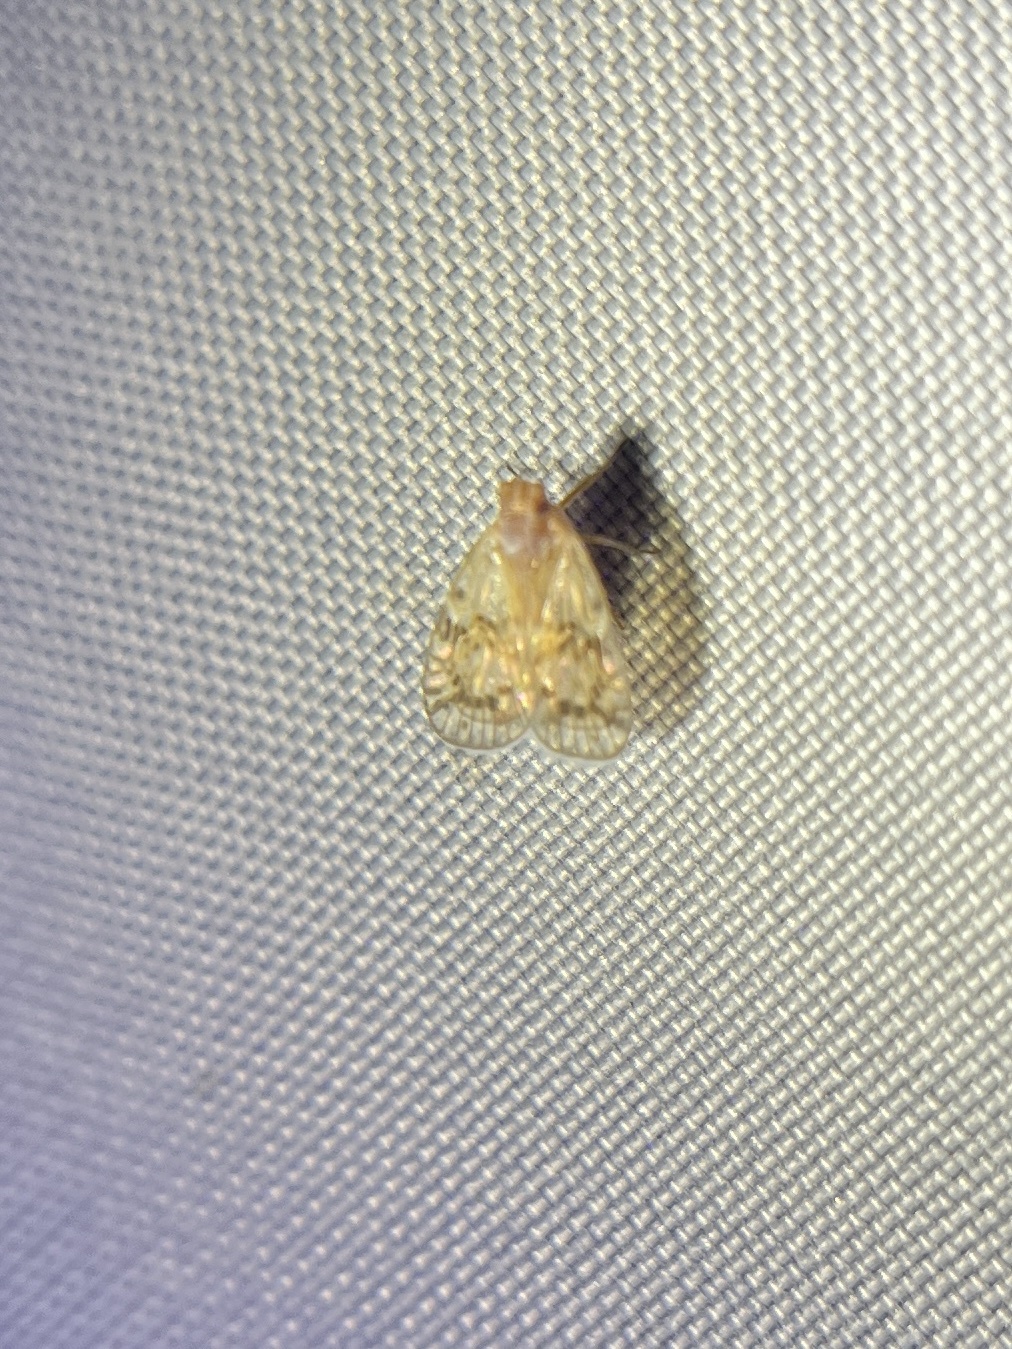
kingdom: Animalia
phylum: Arthropoda
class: Insecta
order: Hemiptera
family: Cixiidae
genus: Bothriocera
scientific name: Bothriocera drakei
